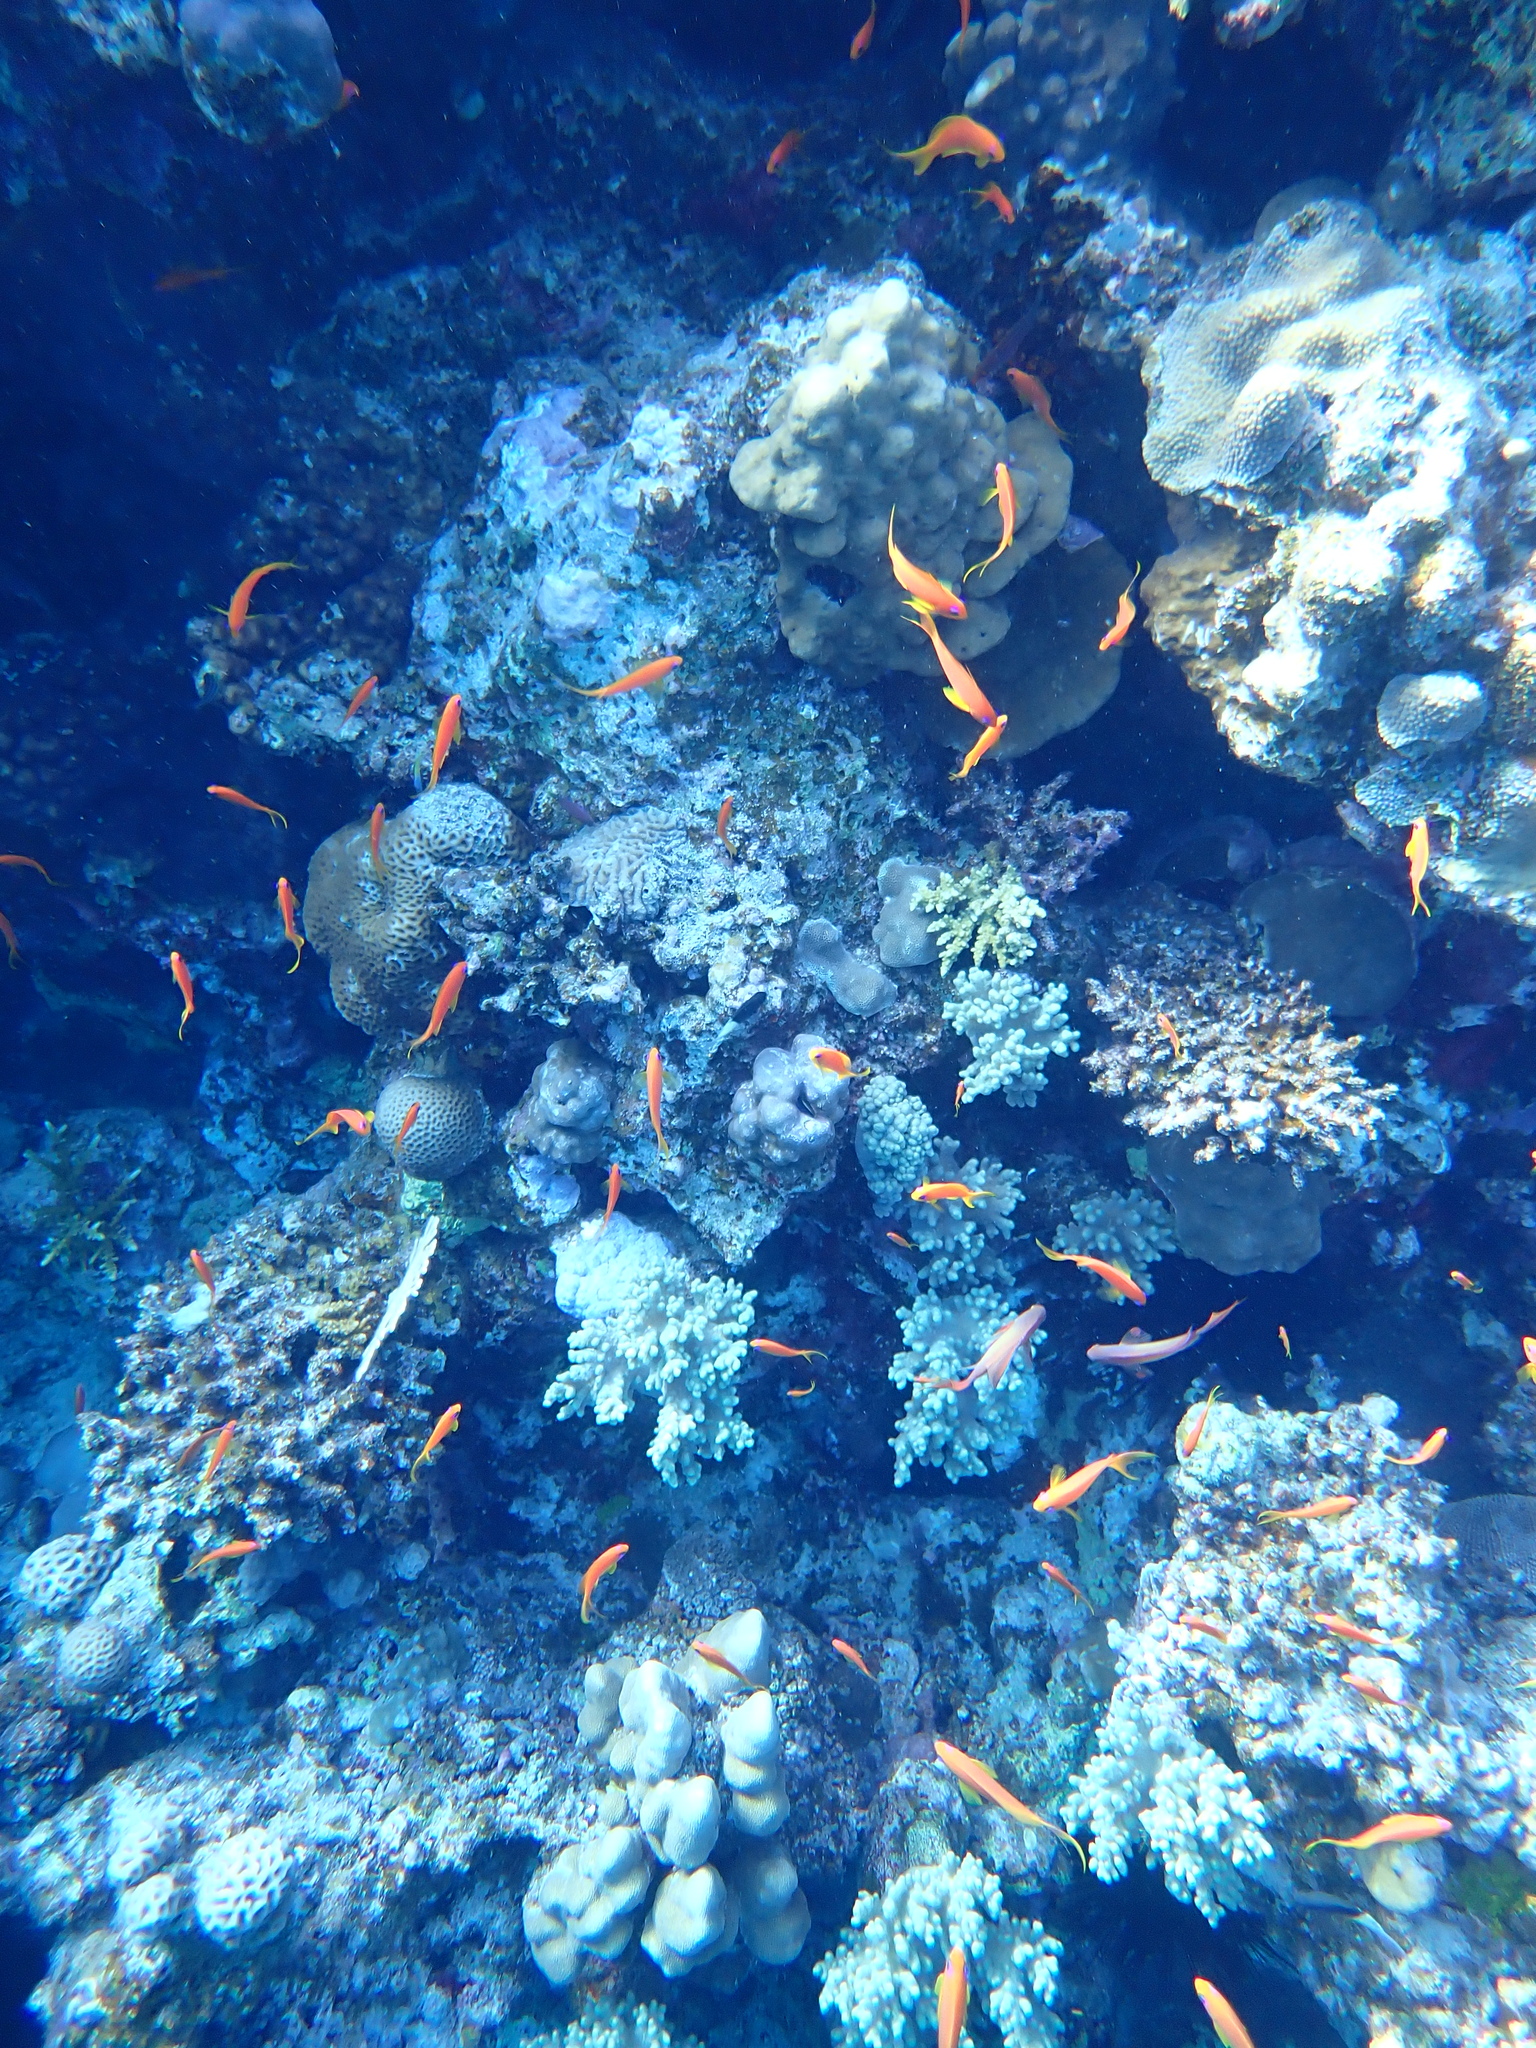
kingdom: Animalia
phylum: Chordata
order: Perciformes
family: Serranidae
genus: Pseudanthias
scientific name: Pseudanthias squamipinnis
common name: Scalefin anthias
